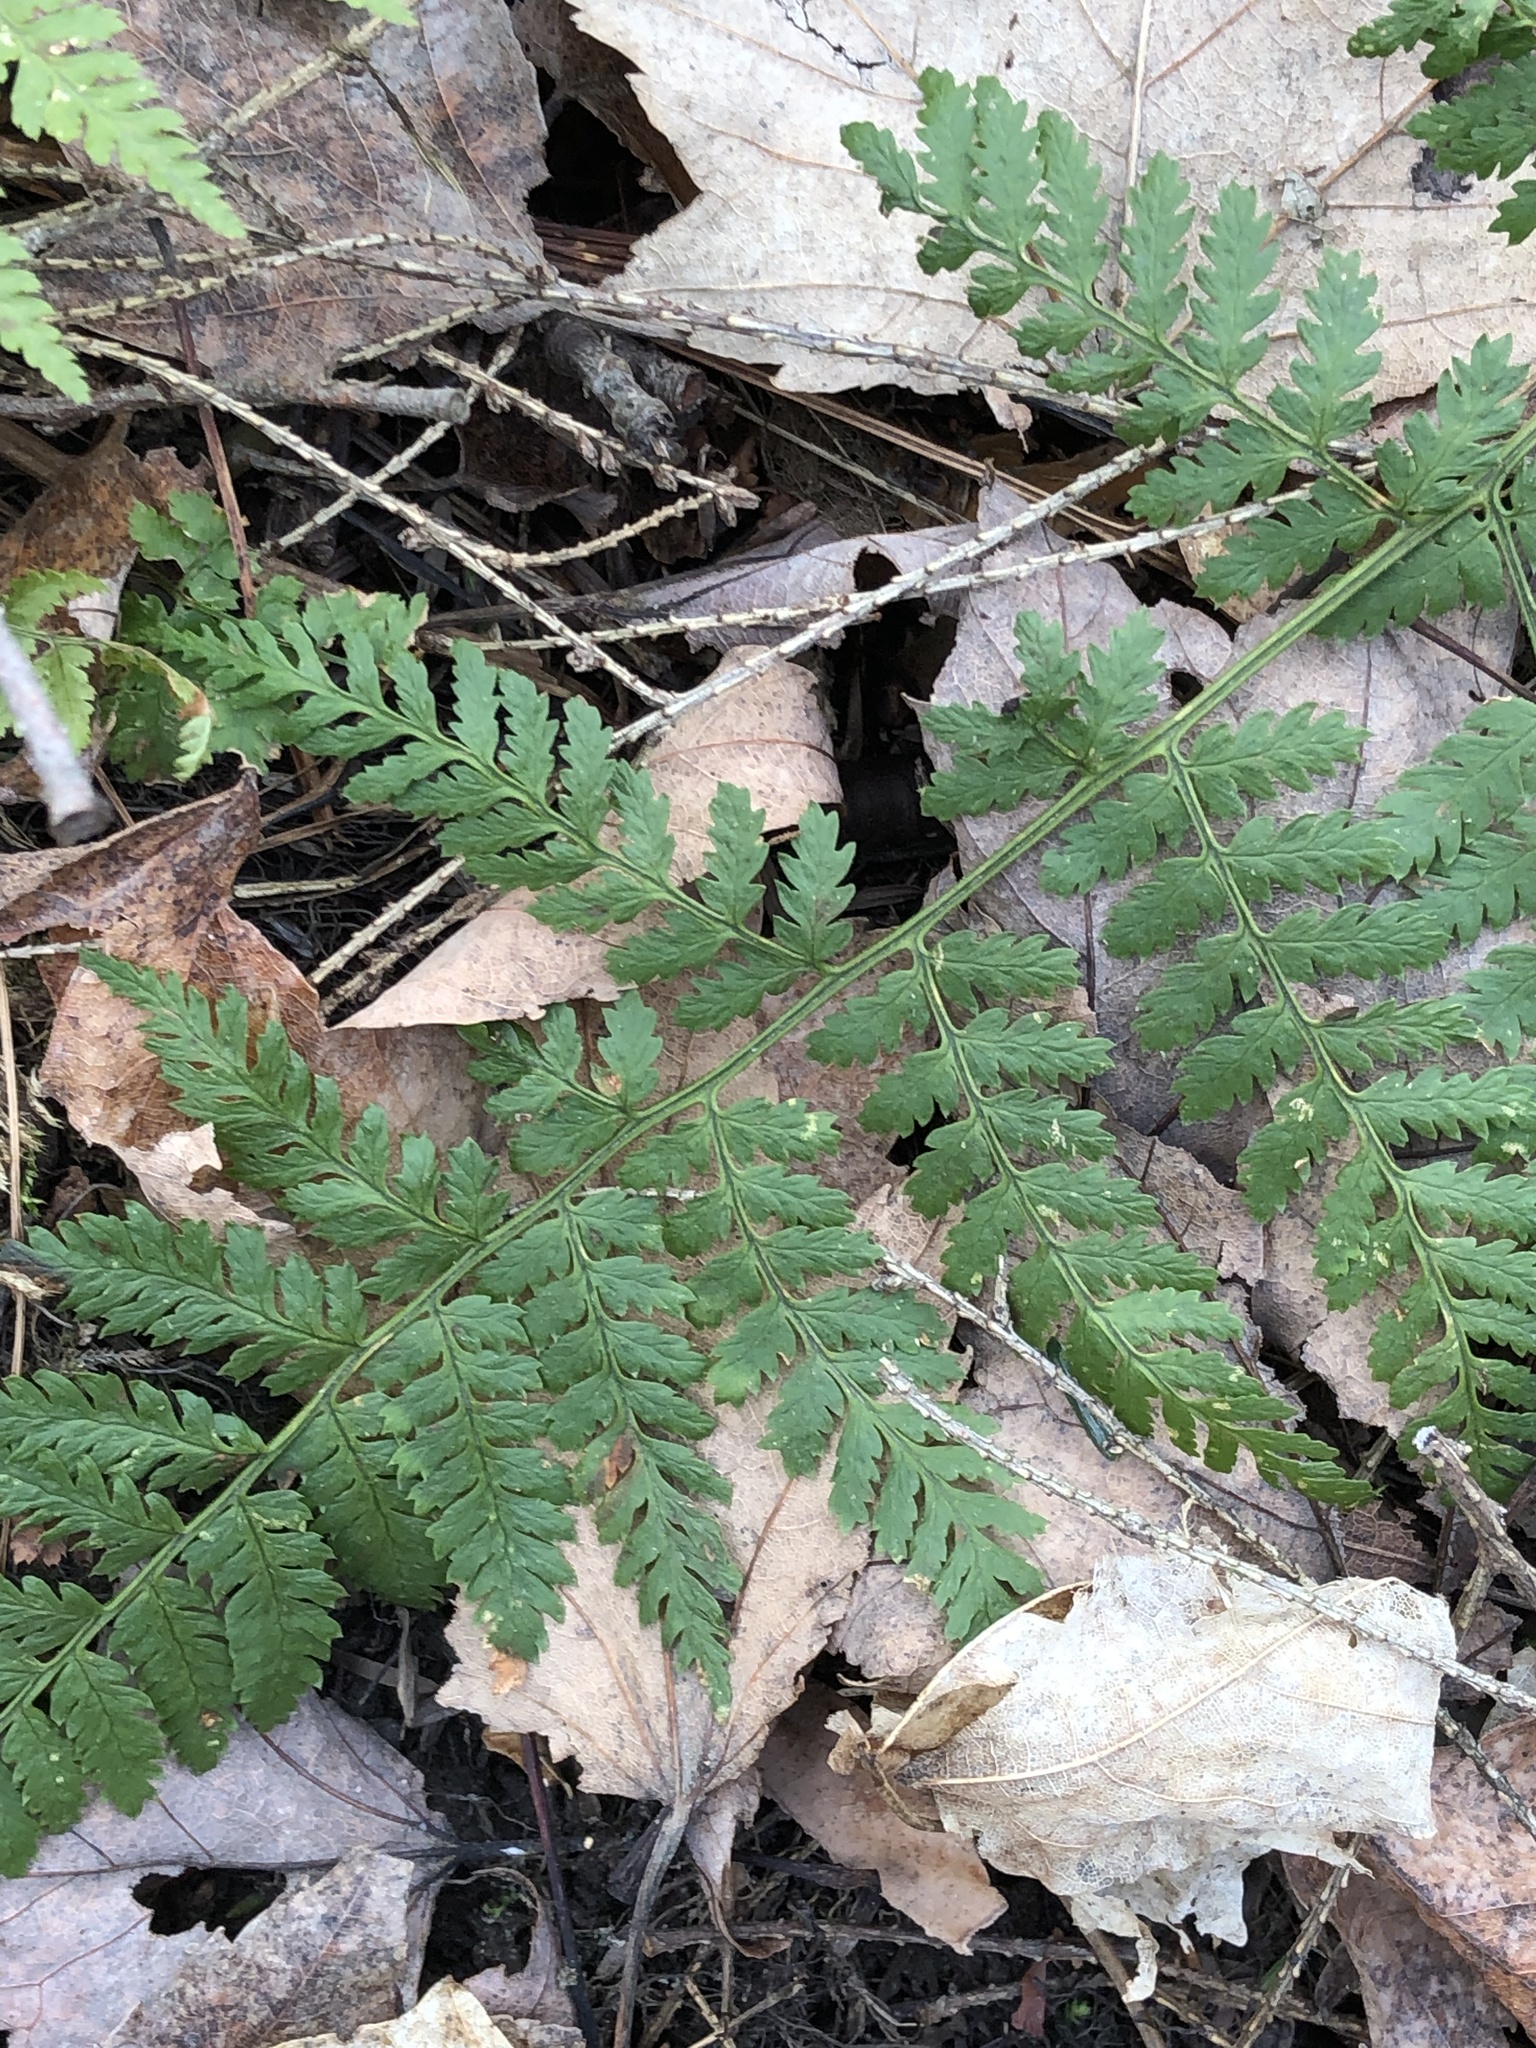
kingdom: Plantae
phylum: Tracheophyta
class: Polypodiopsida
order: Polypodiales
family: Dryopteridaceae
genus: Dryopteris
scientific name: Dryopteris intermedia
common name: Evergreen wood fern
